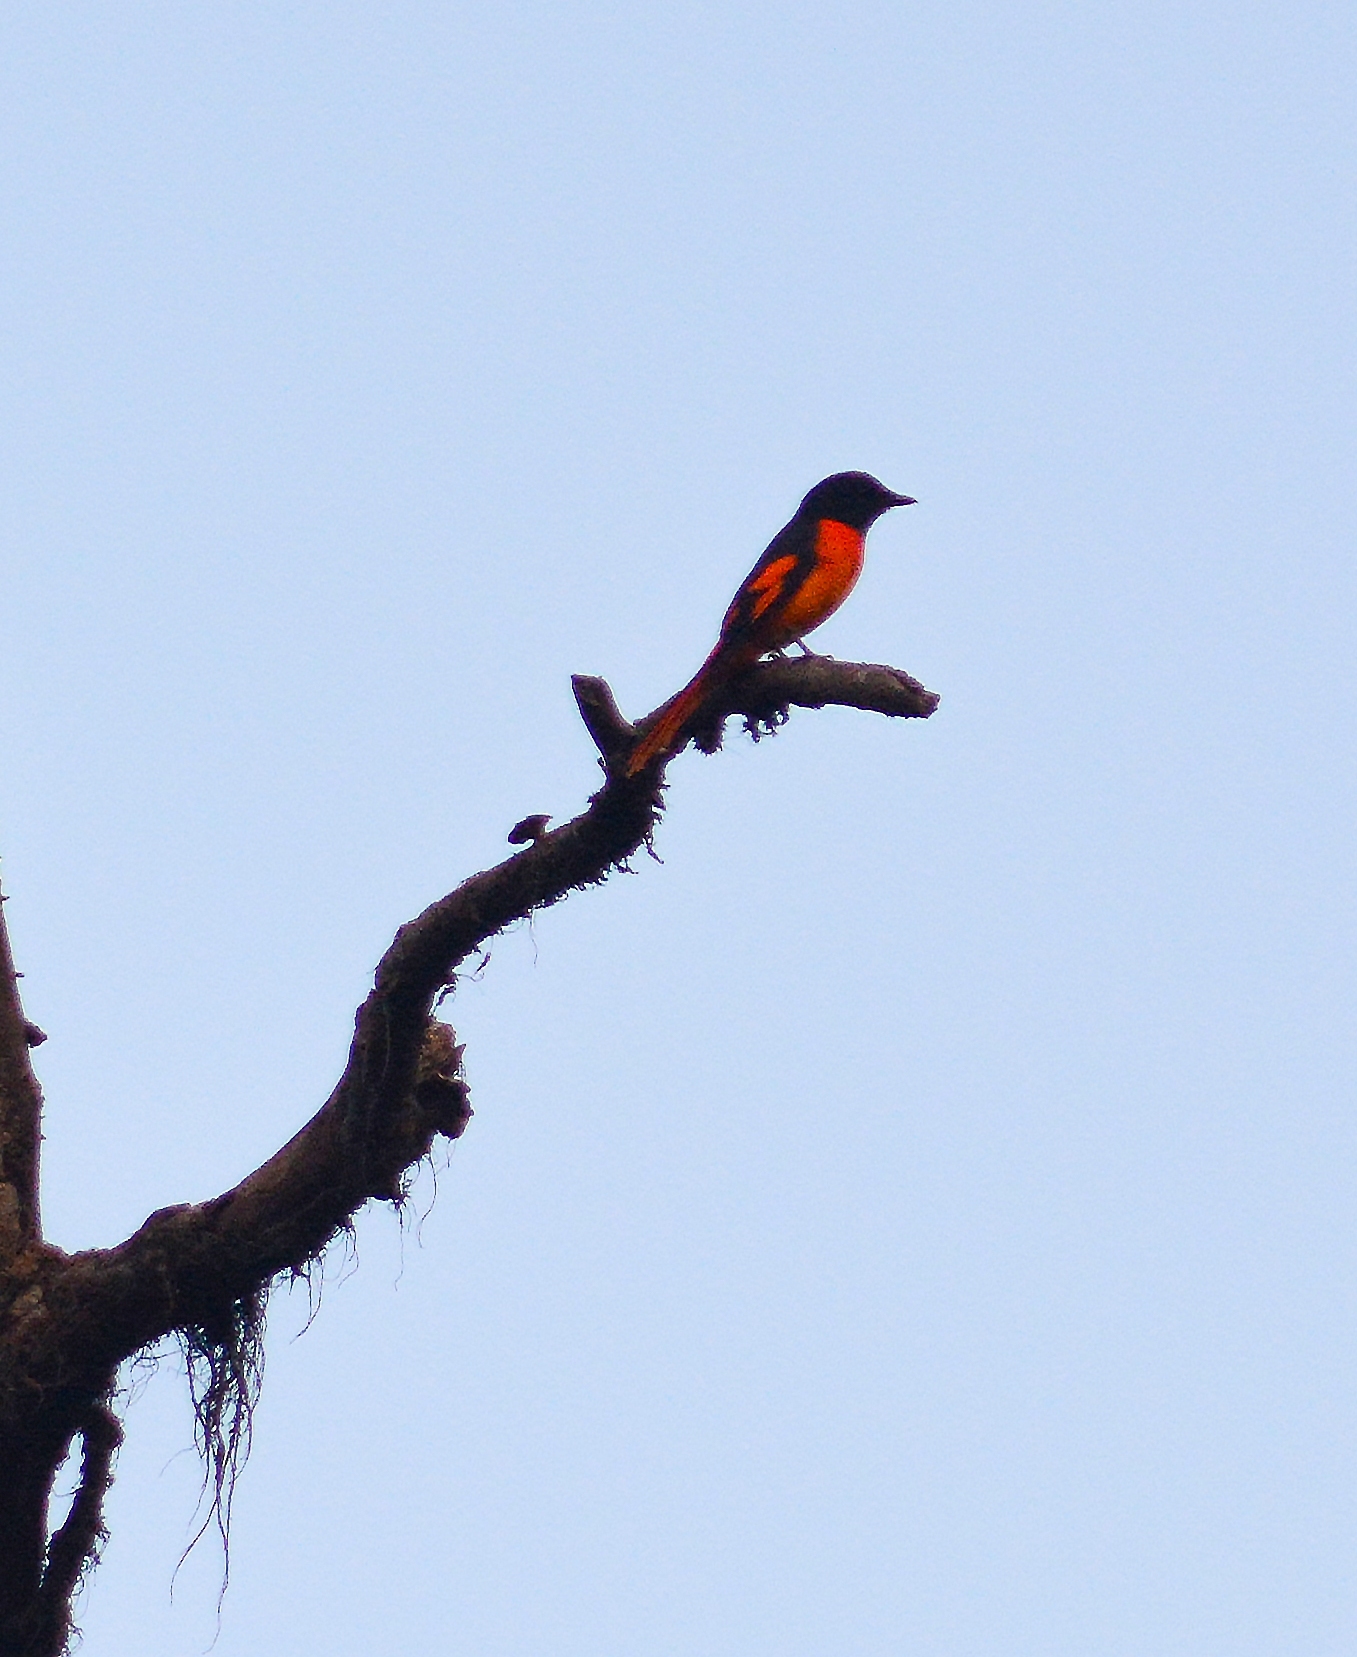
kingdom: Animalia
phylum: Chordata
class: Aves
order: Passeriformes
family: Campephagidae
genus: Pericrocotus
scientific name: Pericrocotus flammeus
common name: Orange minivet
